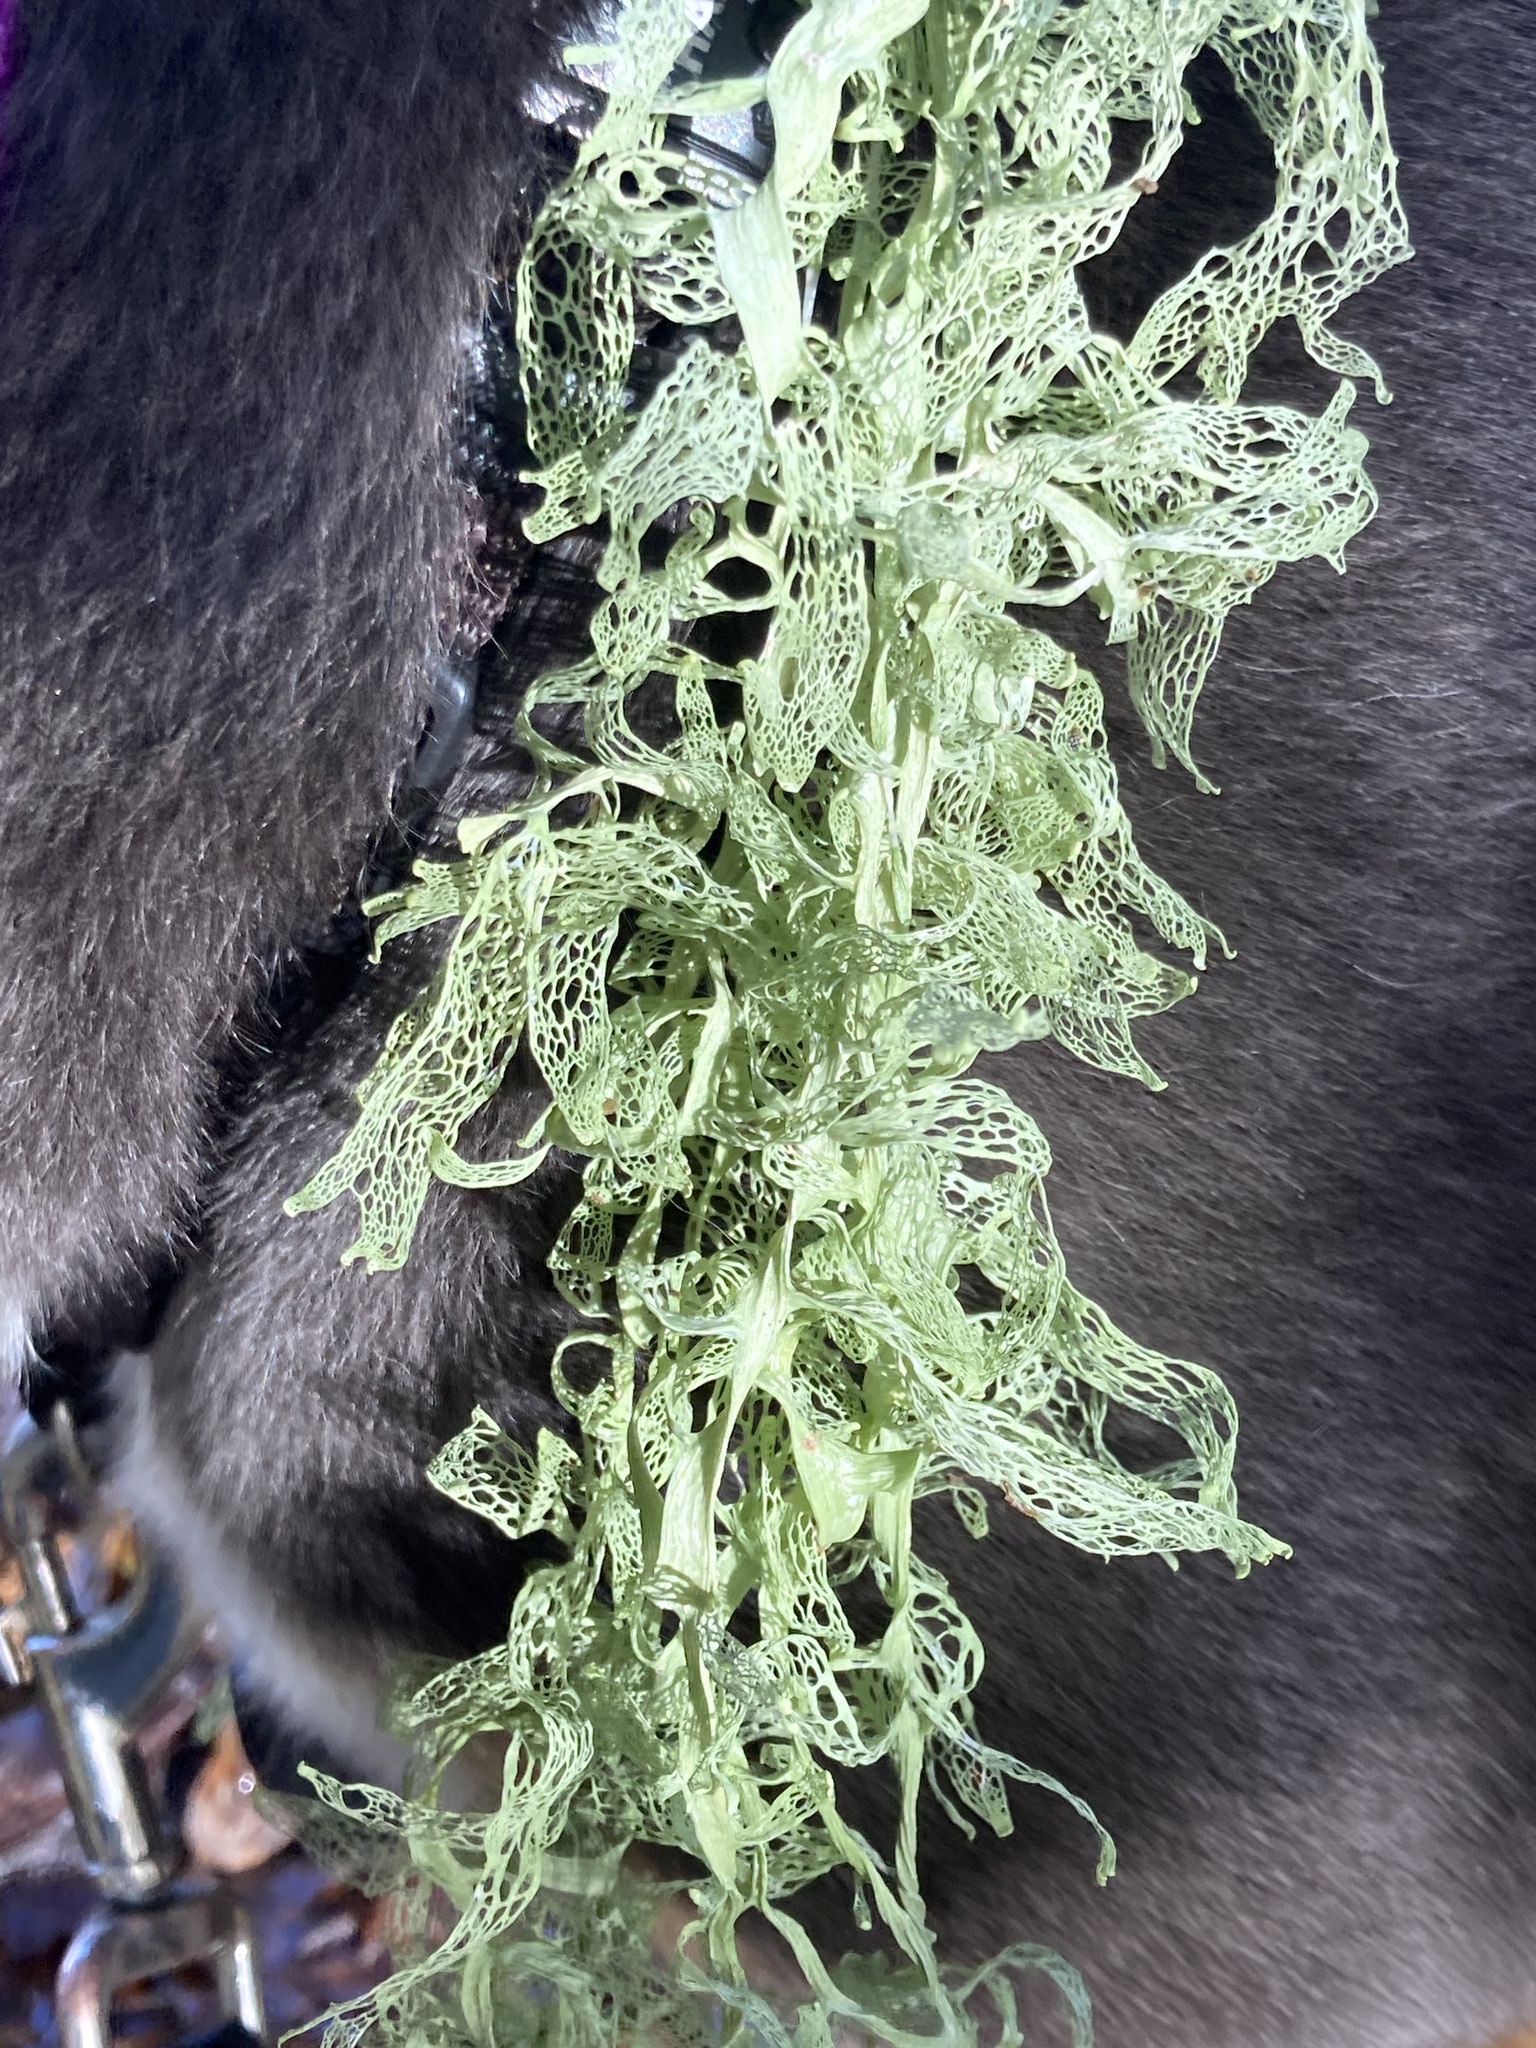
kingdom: Fungi
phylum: Ascomycota
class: Lecanoromycetes
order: Lecanorales
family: Ramalinaceae
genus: Ramalina
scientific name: Ramalina menziesii
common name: Lace lichen
